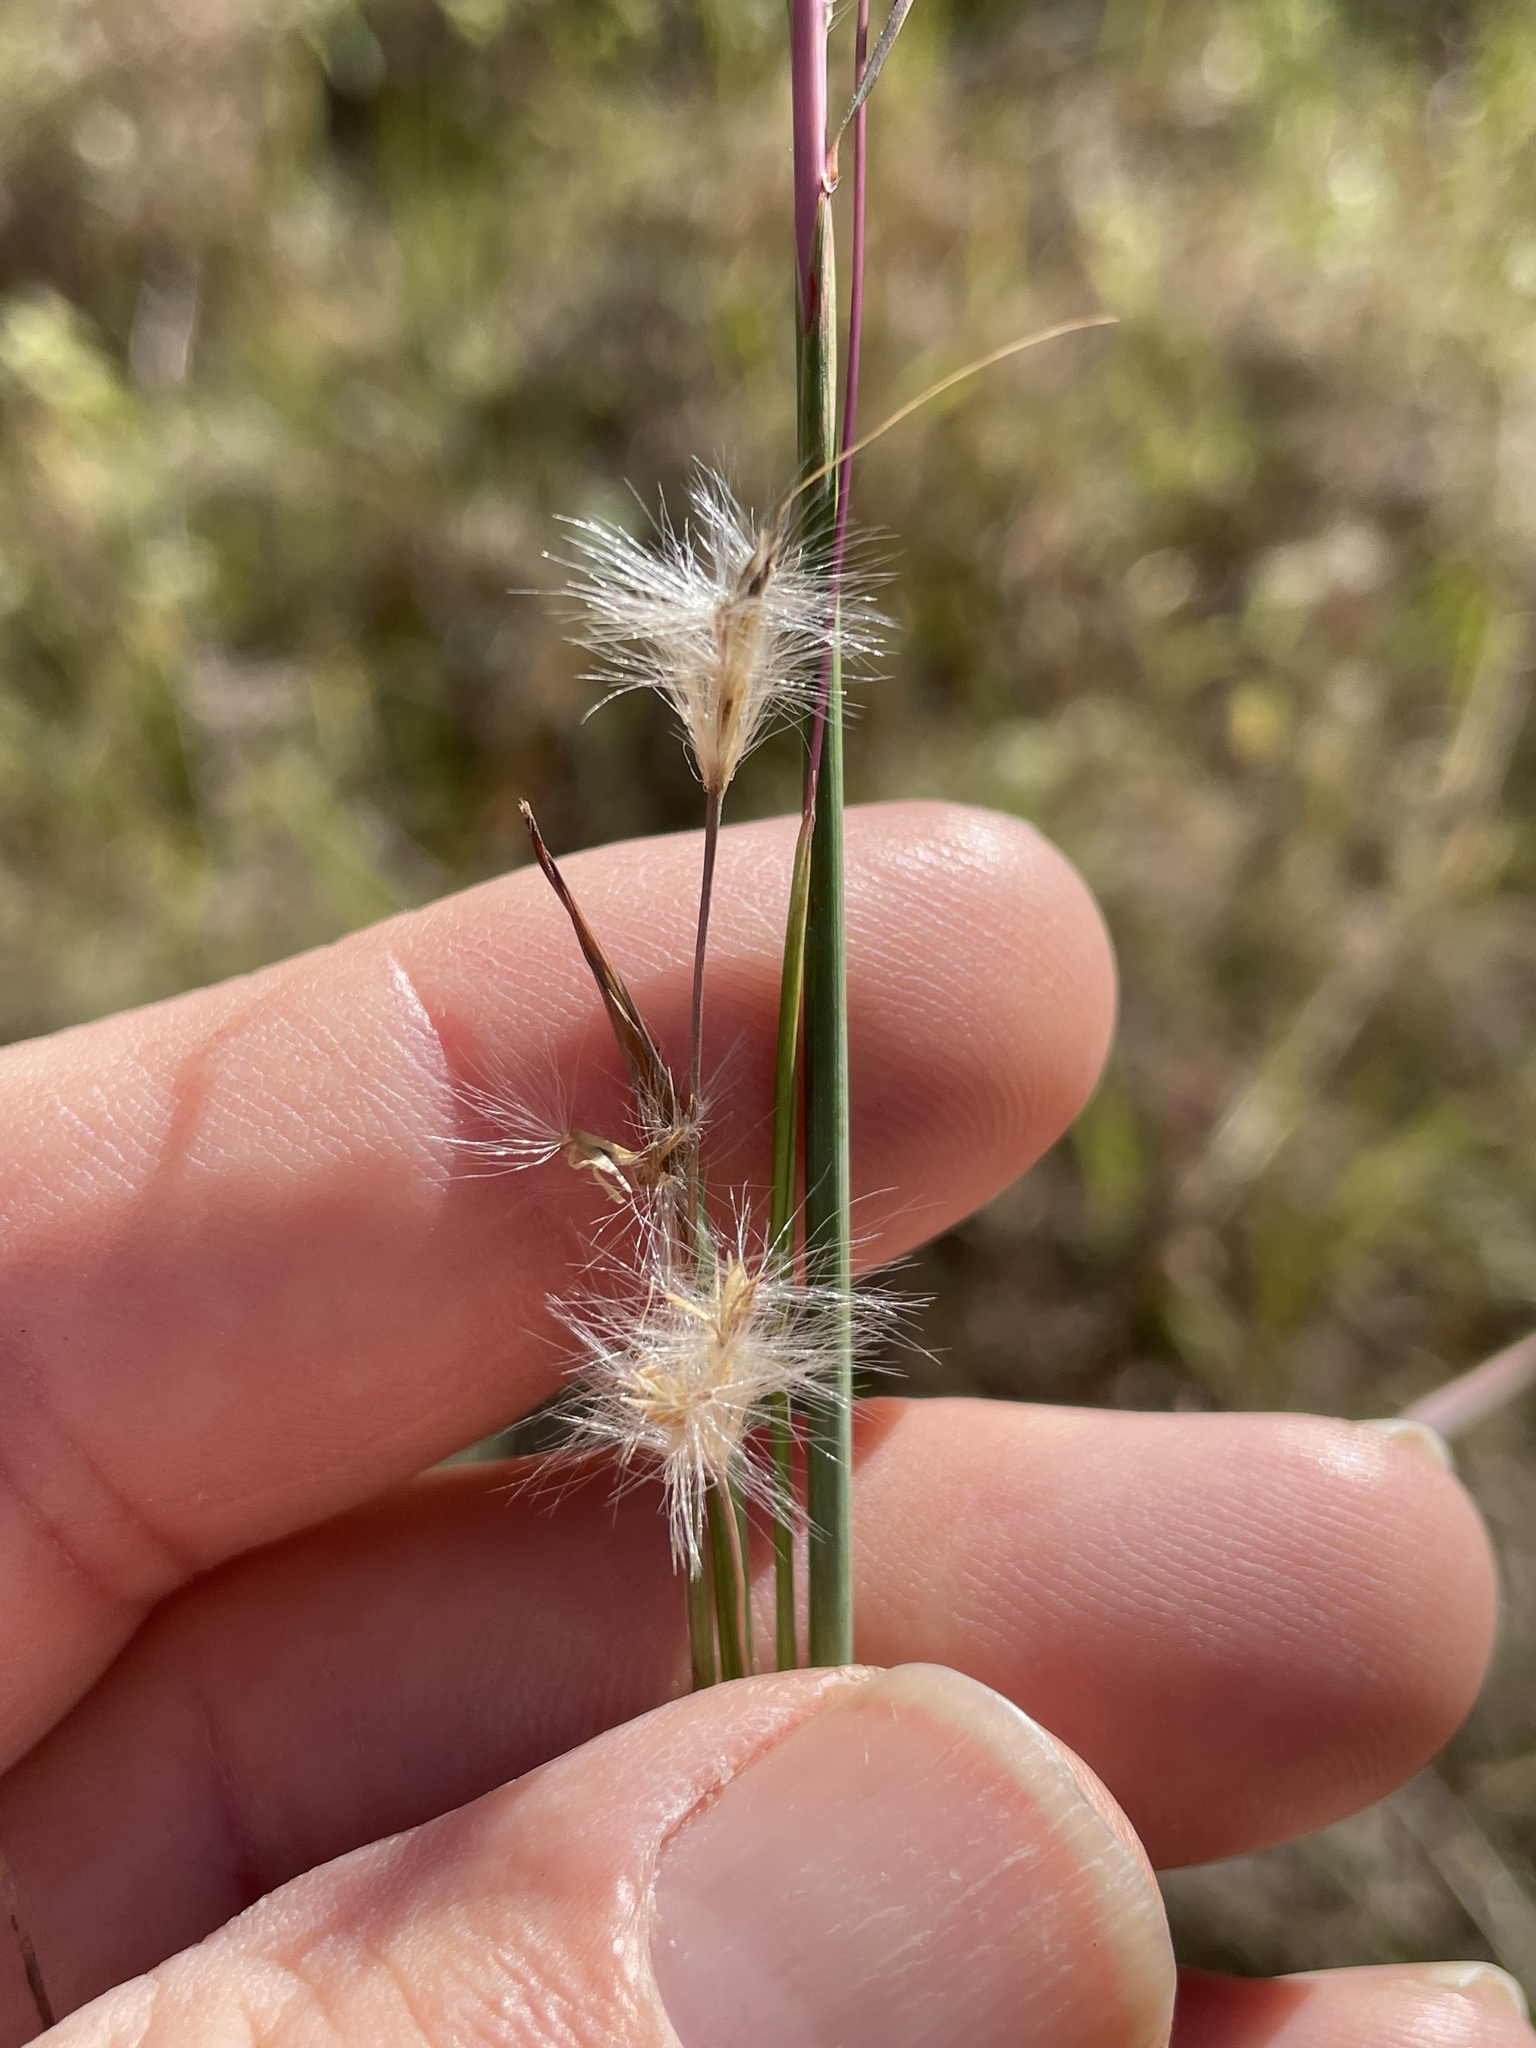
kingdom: Plantae
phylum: Tracheophyta
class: Liliopsida
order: Poales
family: Poaceae
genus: Andropogon
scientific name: Andropogon ternarius
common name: Split bluestem
